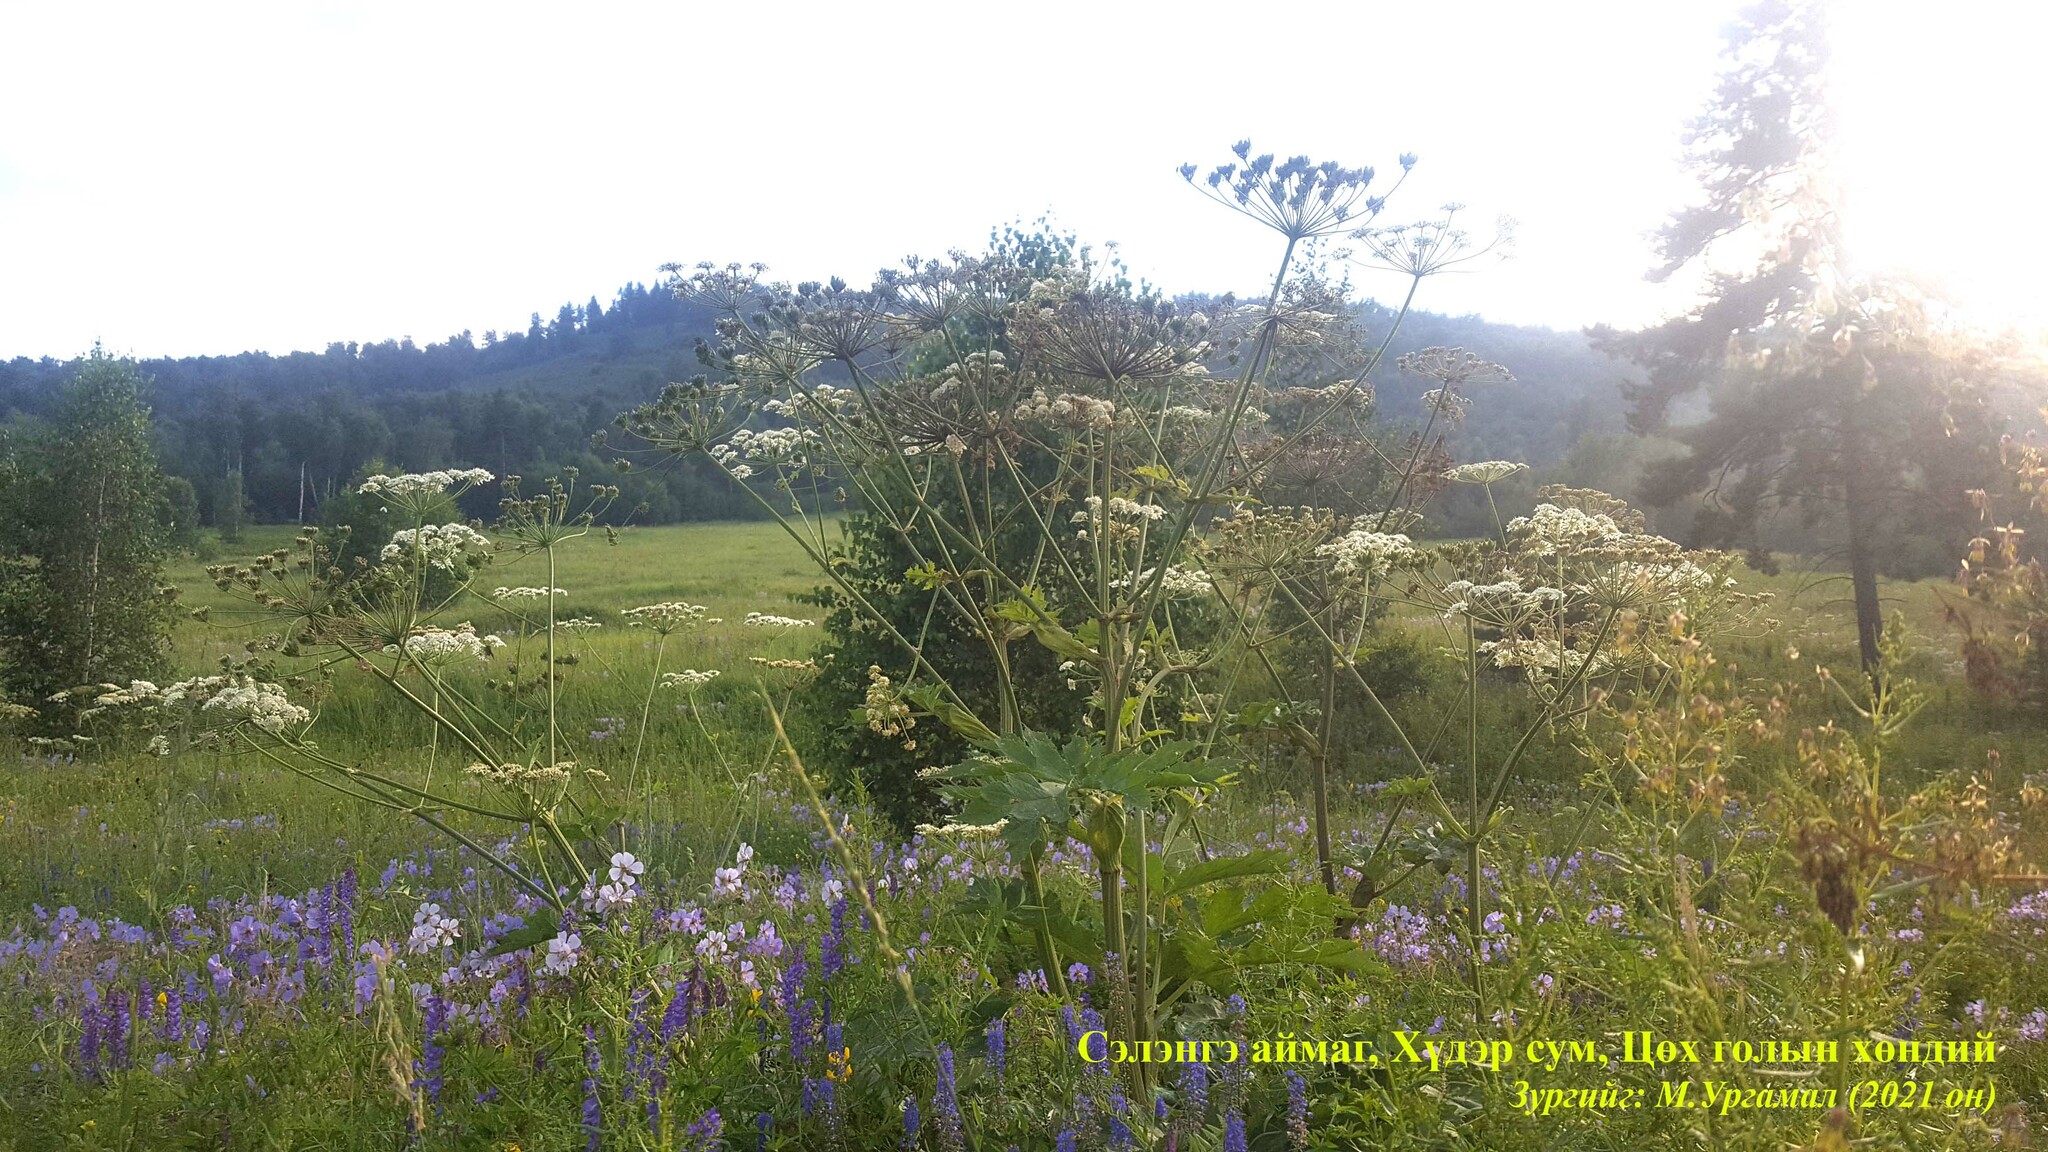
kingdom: Plantae
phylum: Tracheophyta
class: Magnoliopsida
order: Apiales
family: Apiaceae
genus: Heracleum
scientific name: Heracleum dissectum
